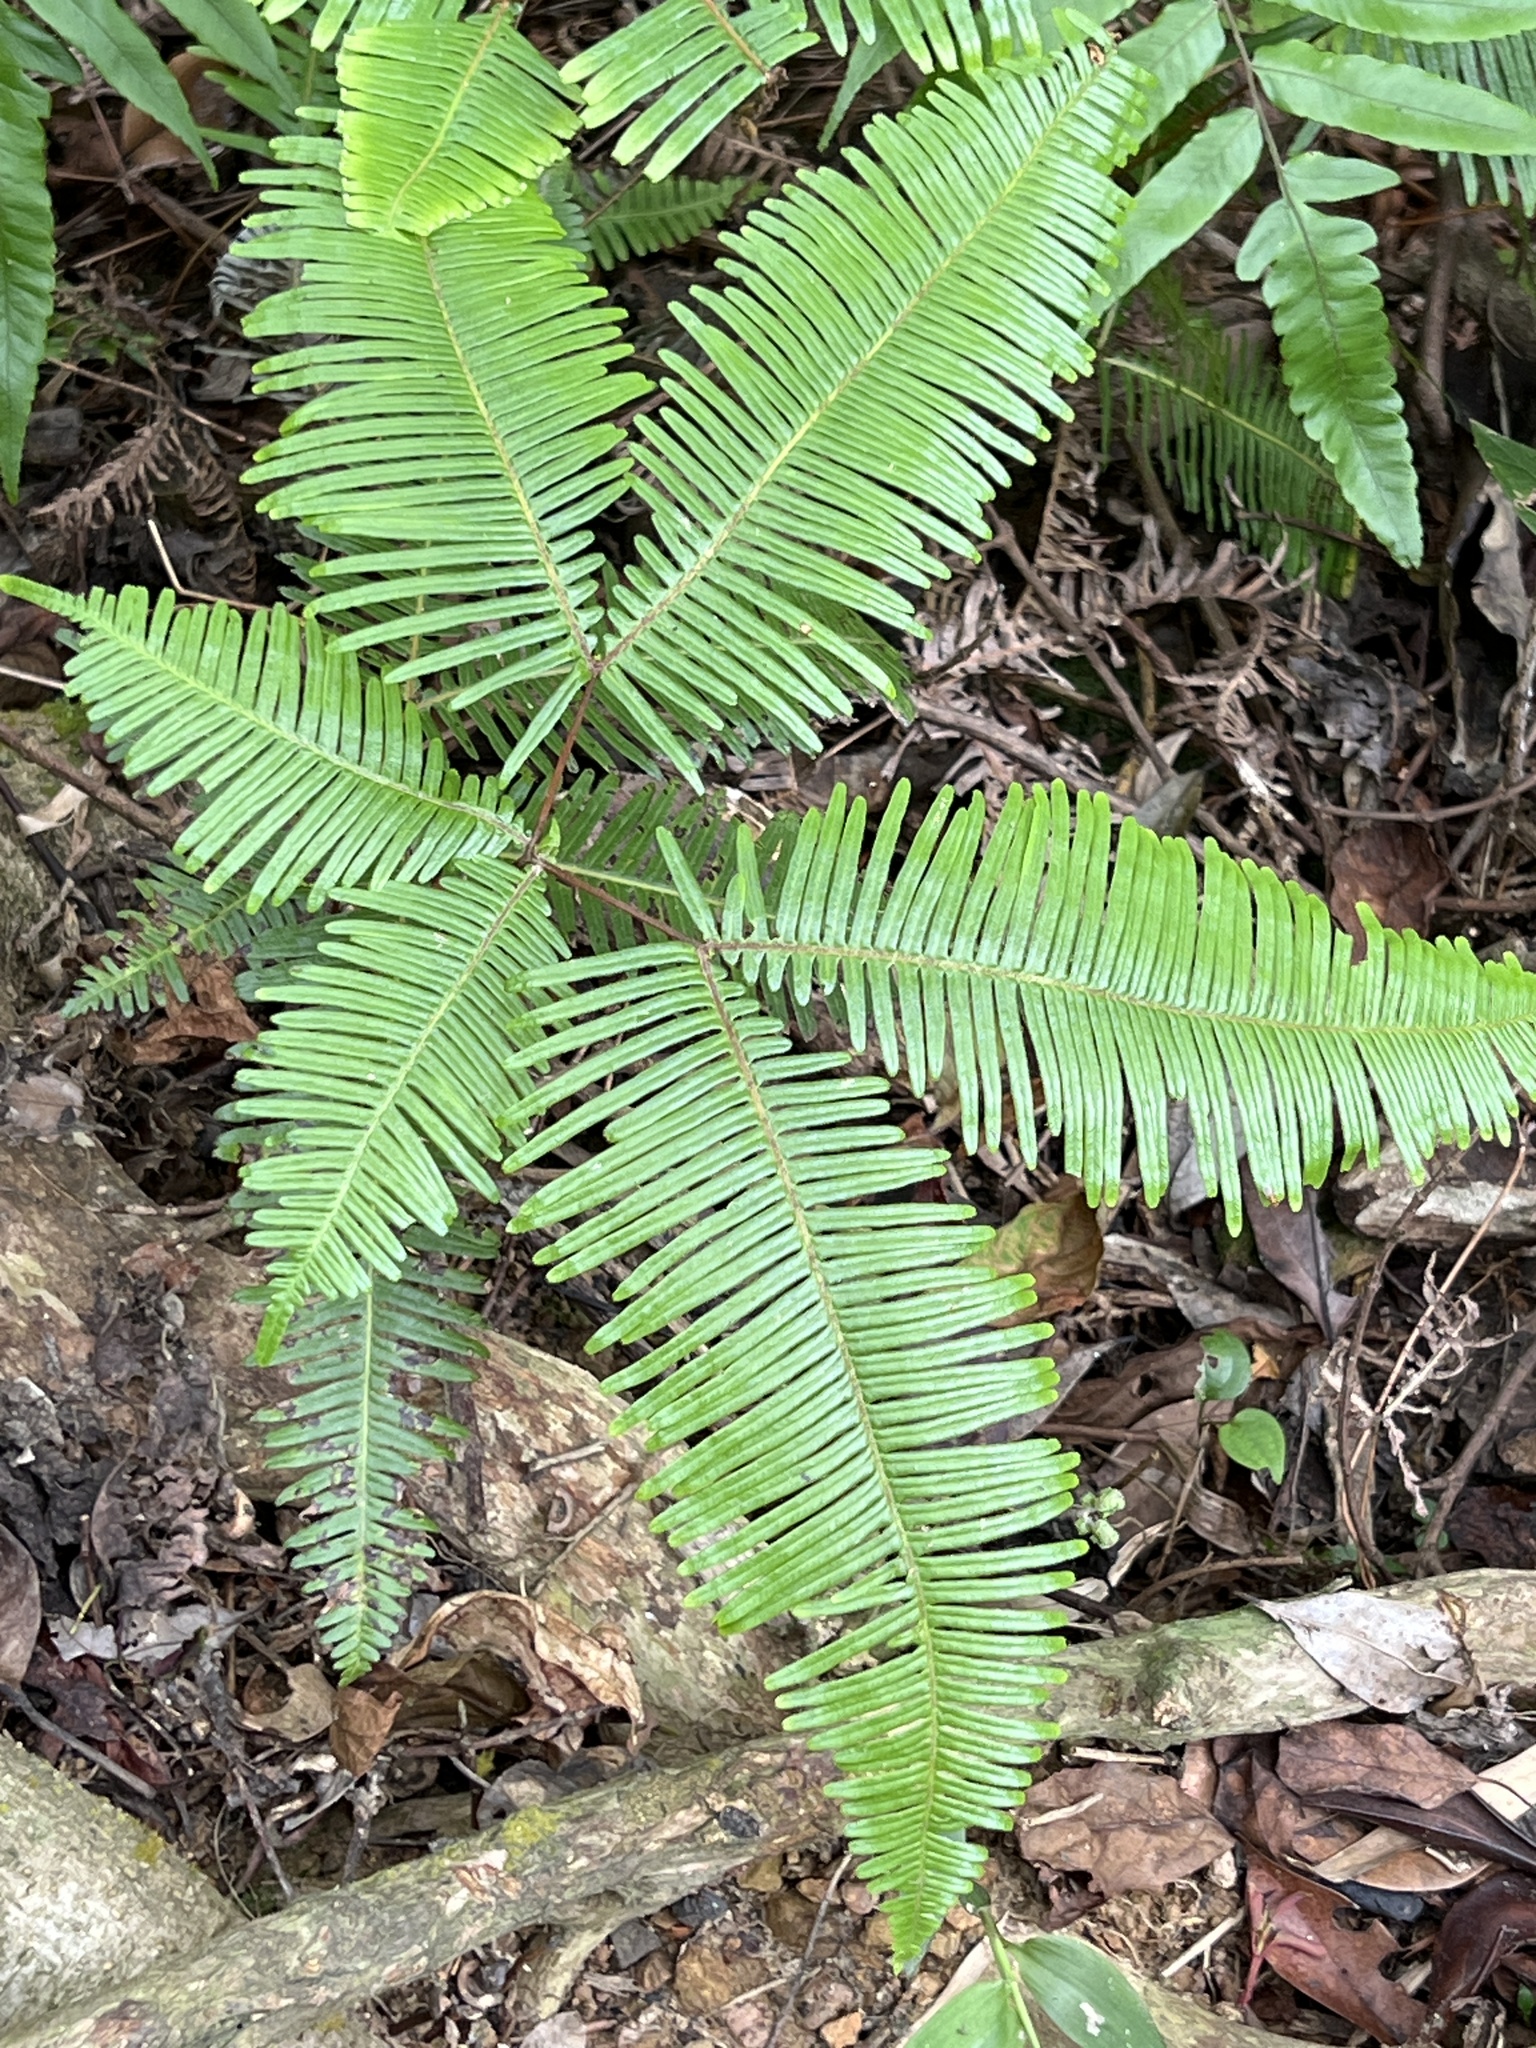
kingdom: Plantae
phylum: Tracheophyta
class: Polypodiopsida
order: Gleicheniales
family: Gleicheniaceae
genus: Dicranopteris
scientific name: Dicranopteris linearis
